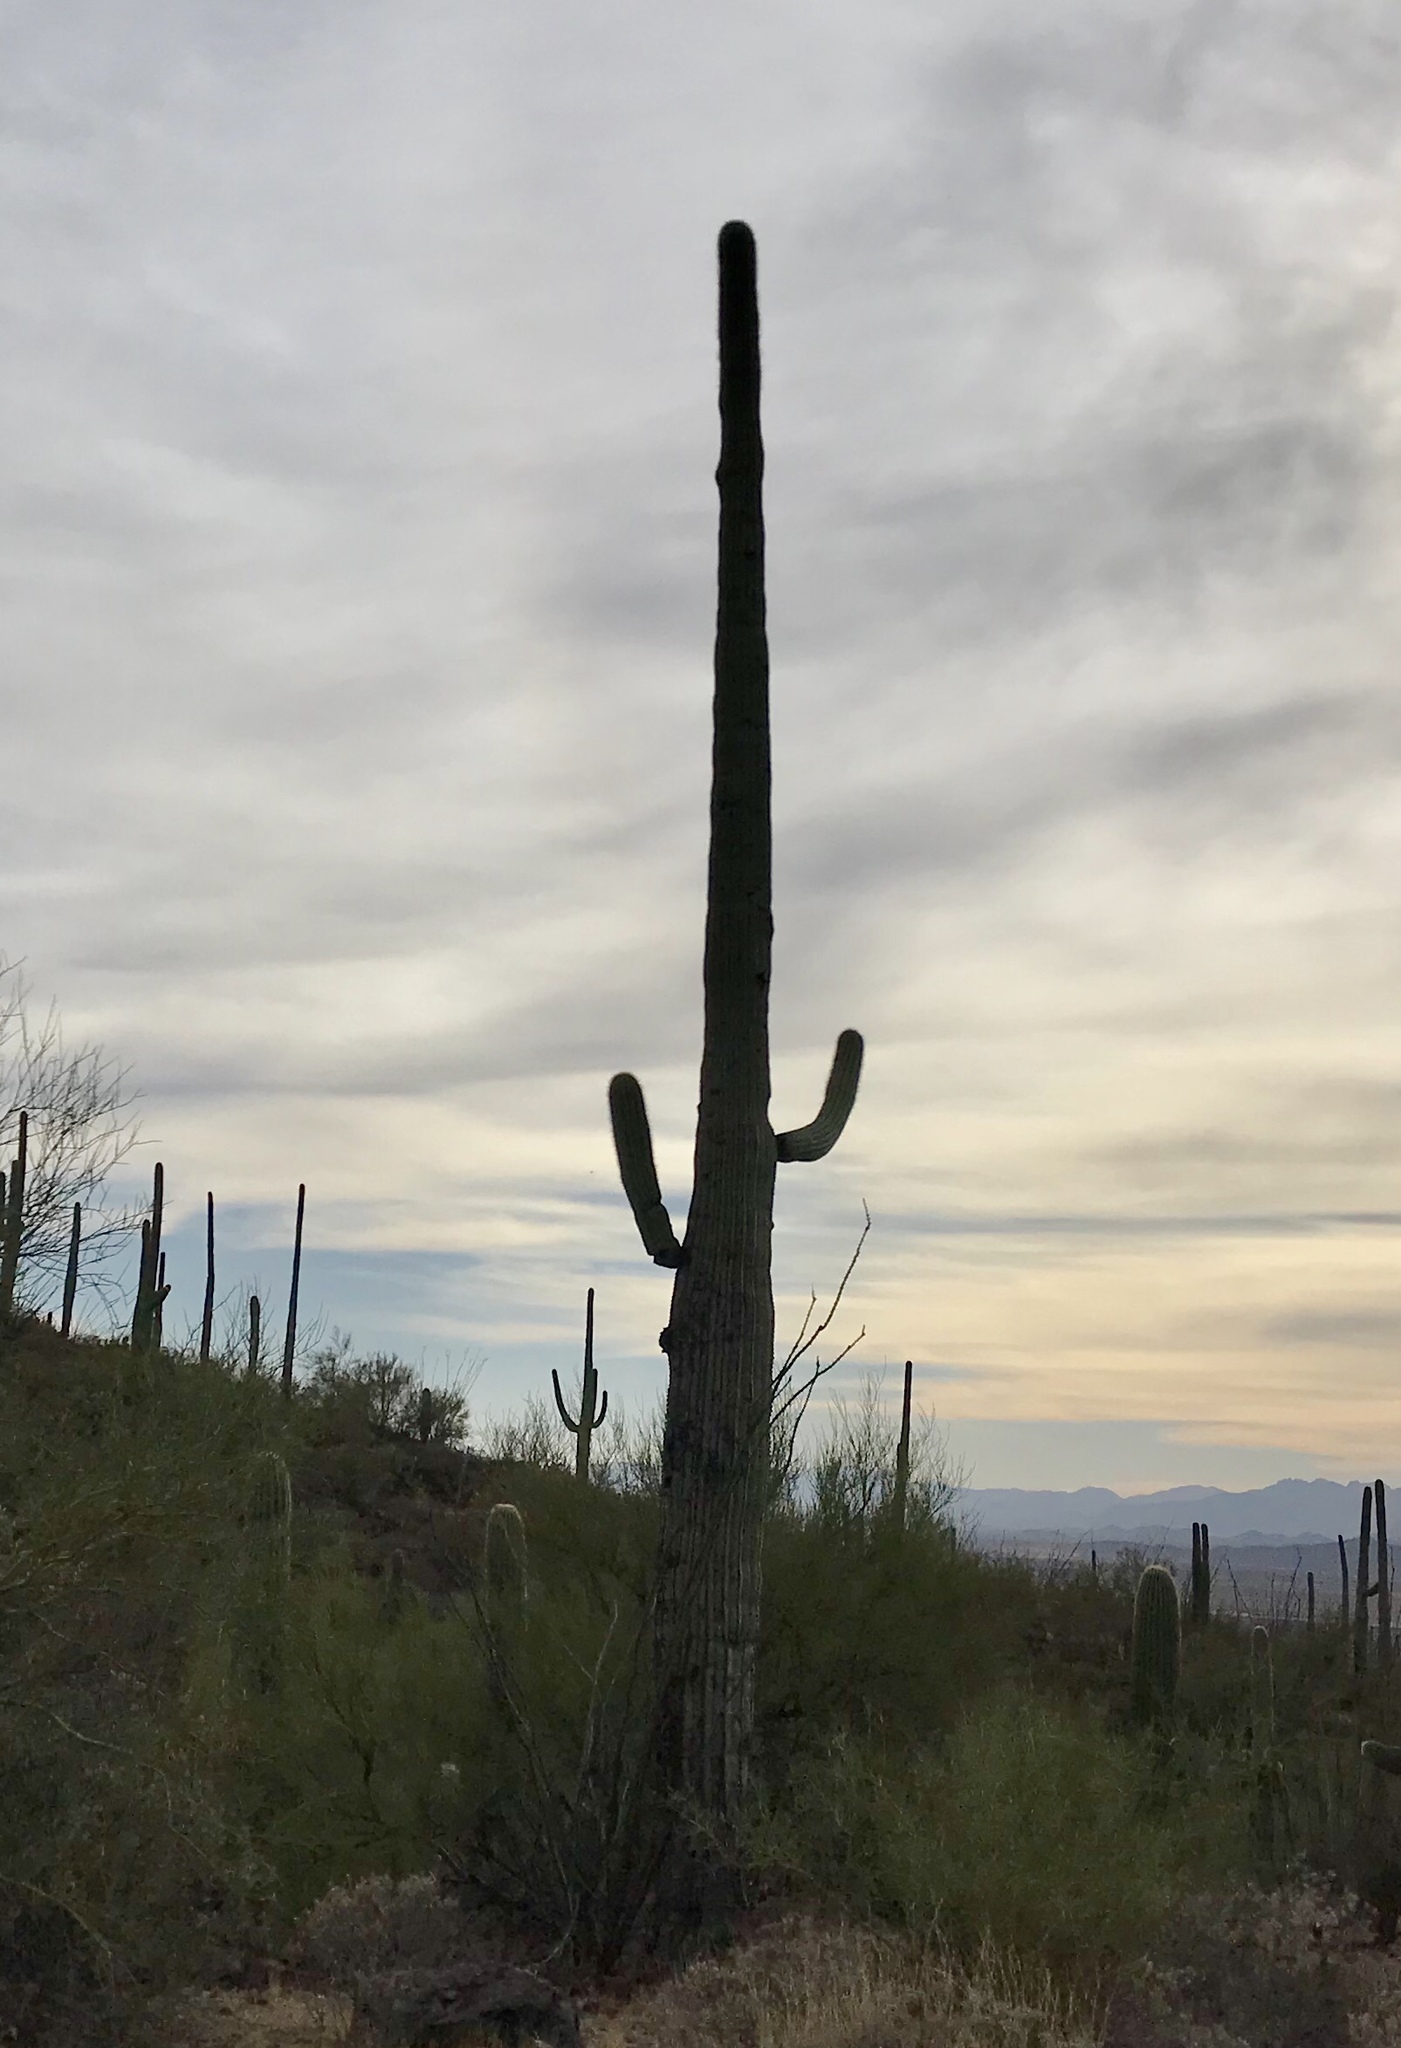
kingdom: Plantae
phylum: Tracheophyta
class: Magnoliopsida
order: Caryophyllales
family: Cactaceae
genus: Carnegiea
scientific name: Carnegiea gigantea
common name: Saguaro
